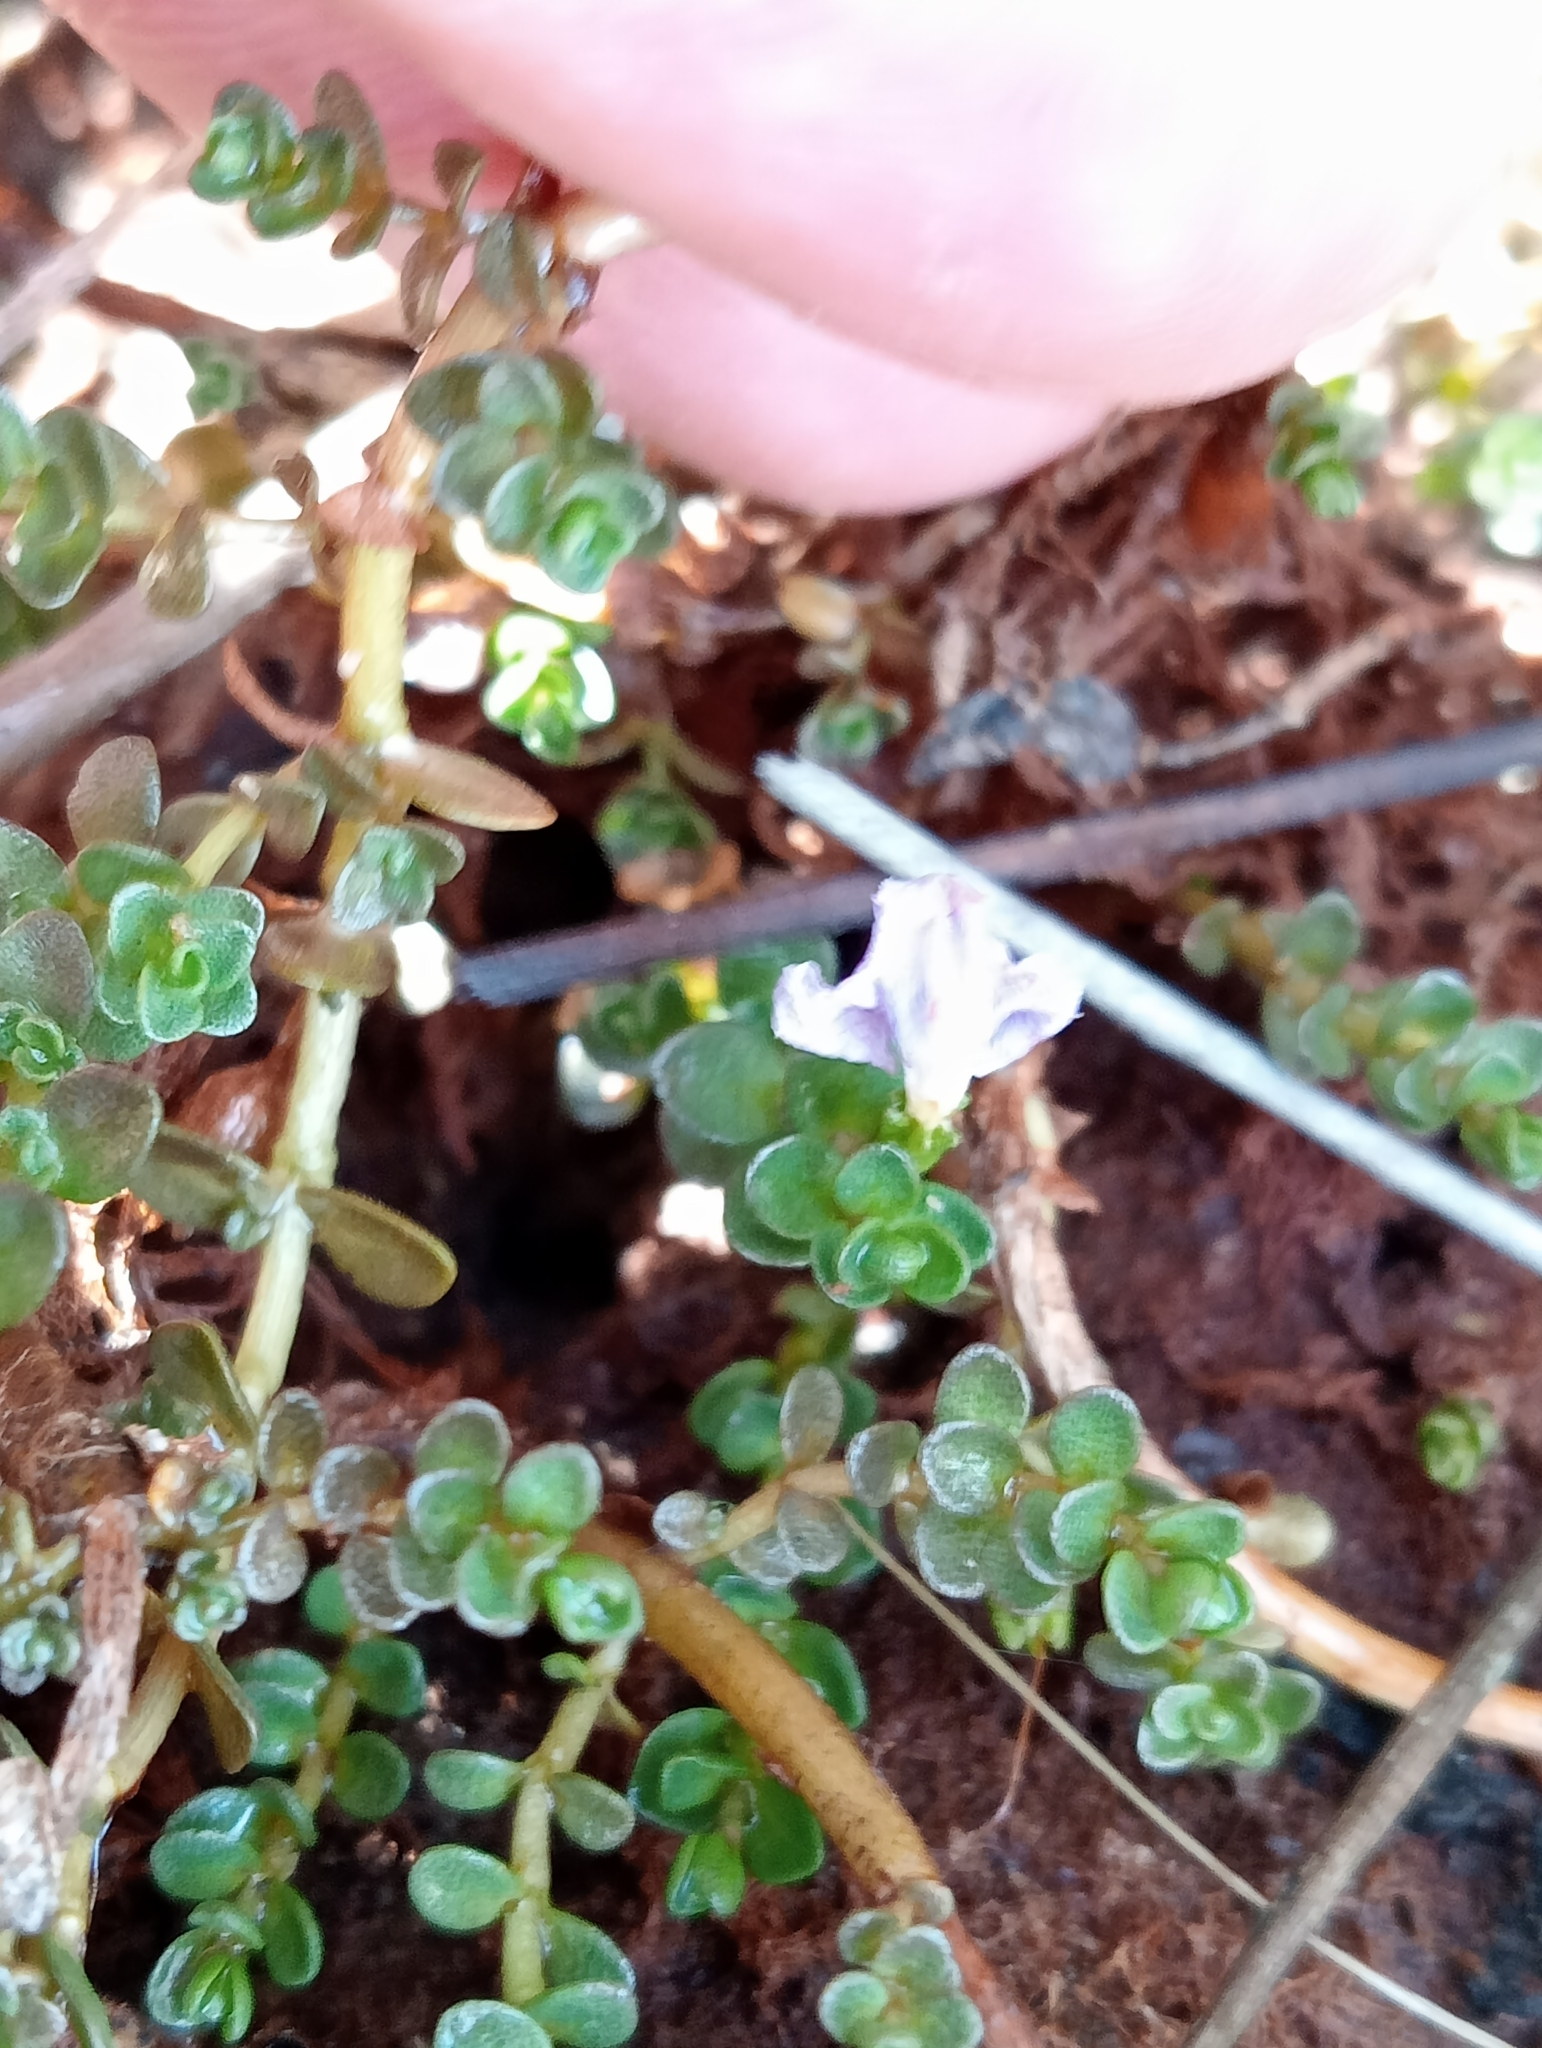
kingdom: Plantae
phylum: Tracheophyta
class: Magnoliopsida
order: Lamiales
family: Phrymaceae
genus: Thyridia
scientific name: Thyridia repens
